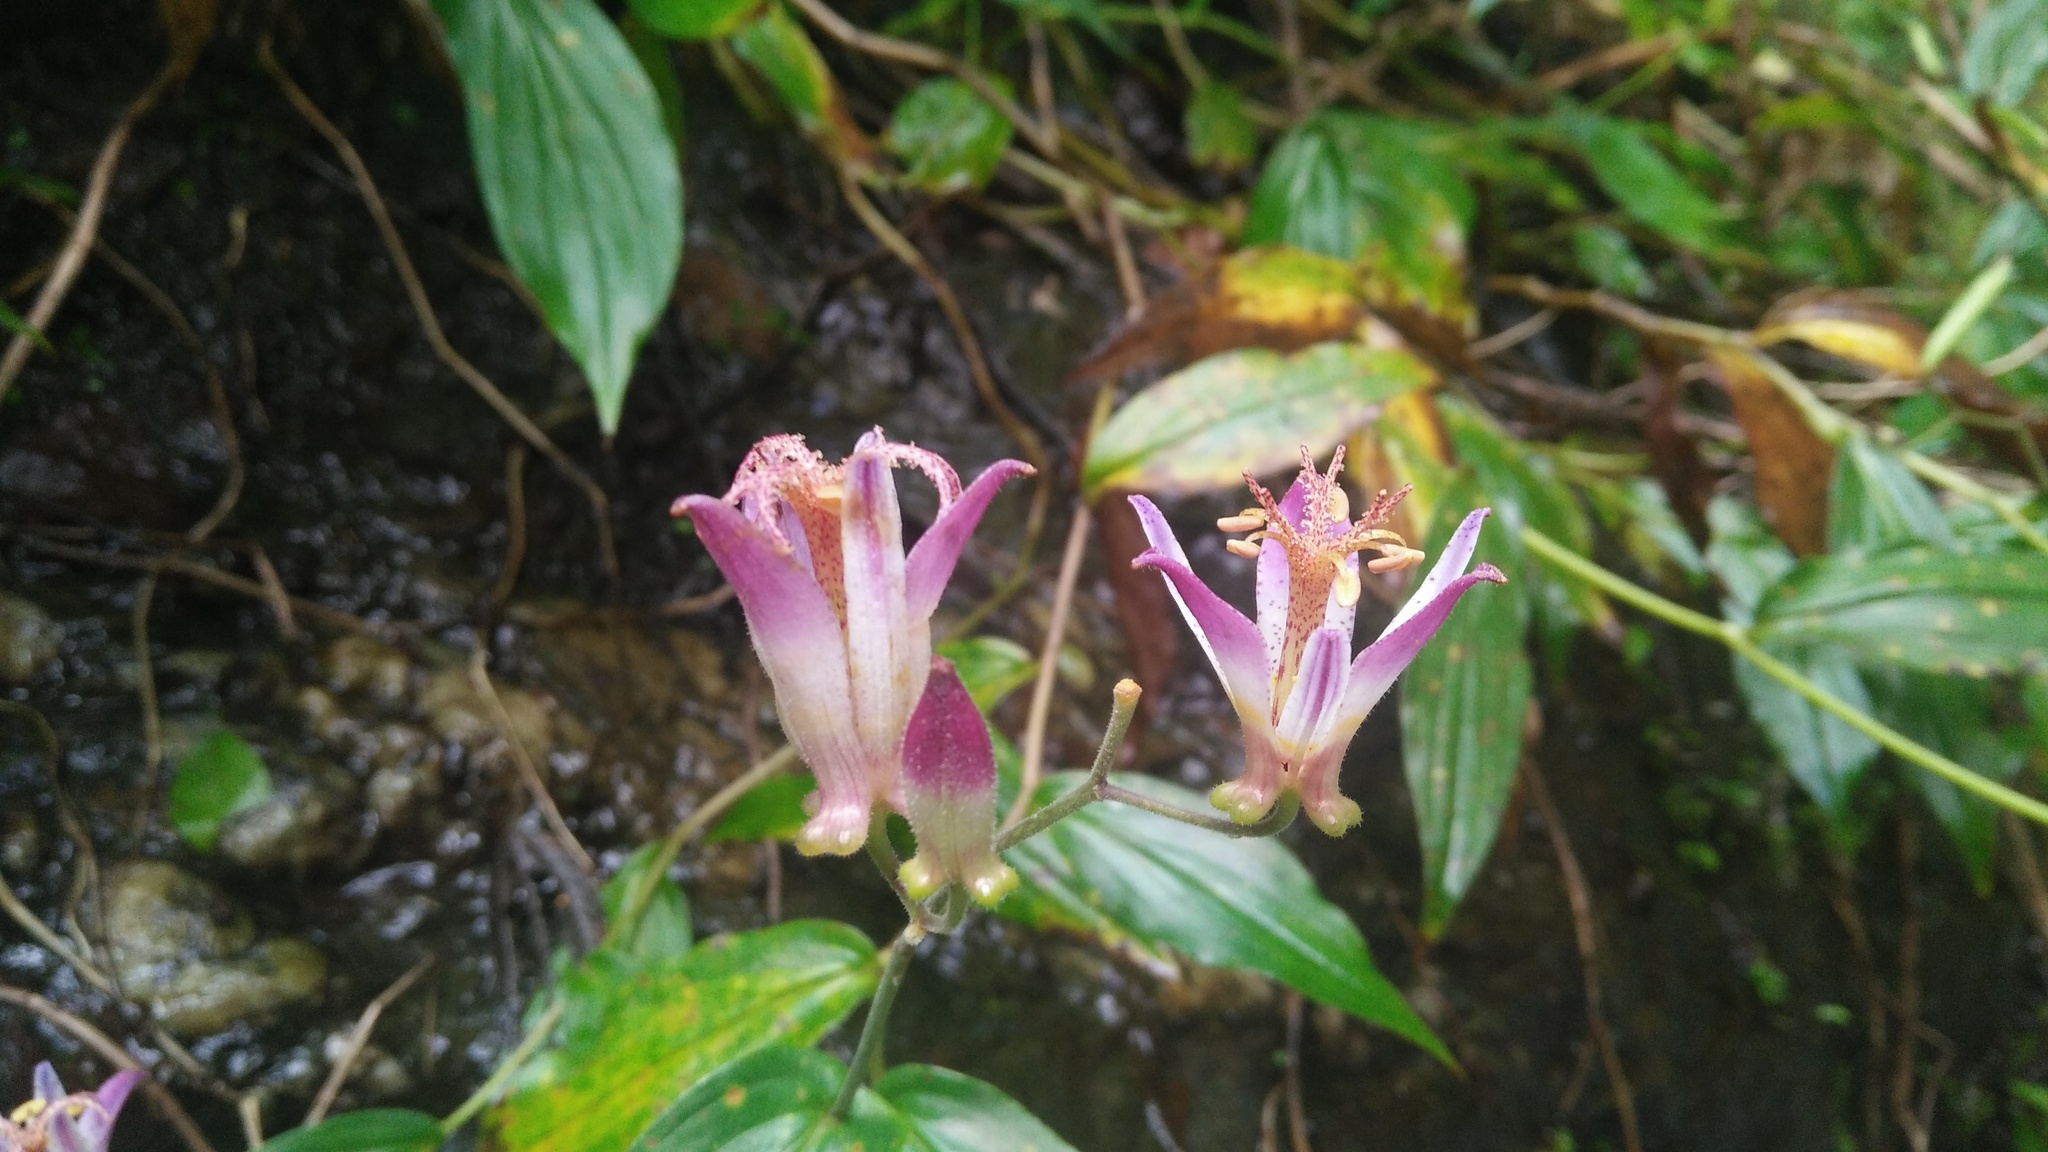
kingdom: Plantae
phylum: Tracheophyta
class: Liliopsida
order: Liliales
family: Liliaceae
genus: Tricyrtis
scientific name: Tricyrtis formosana
